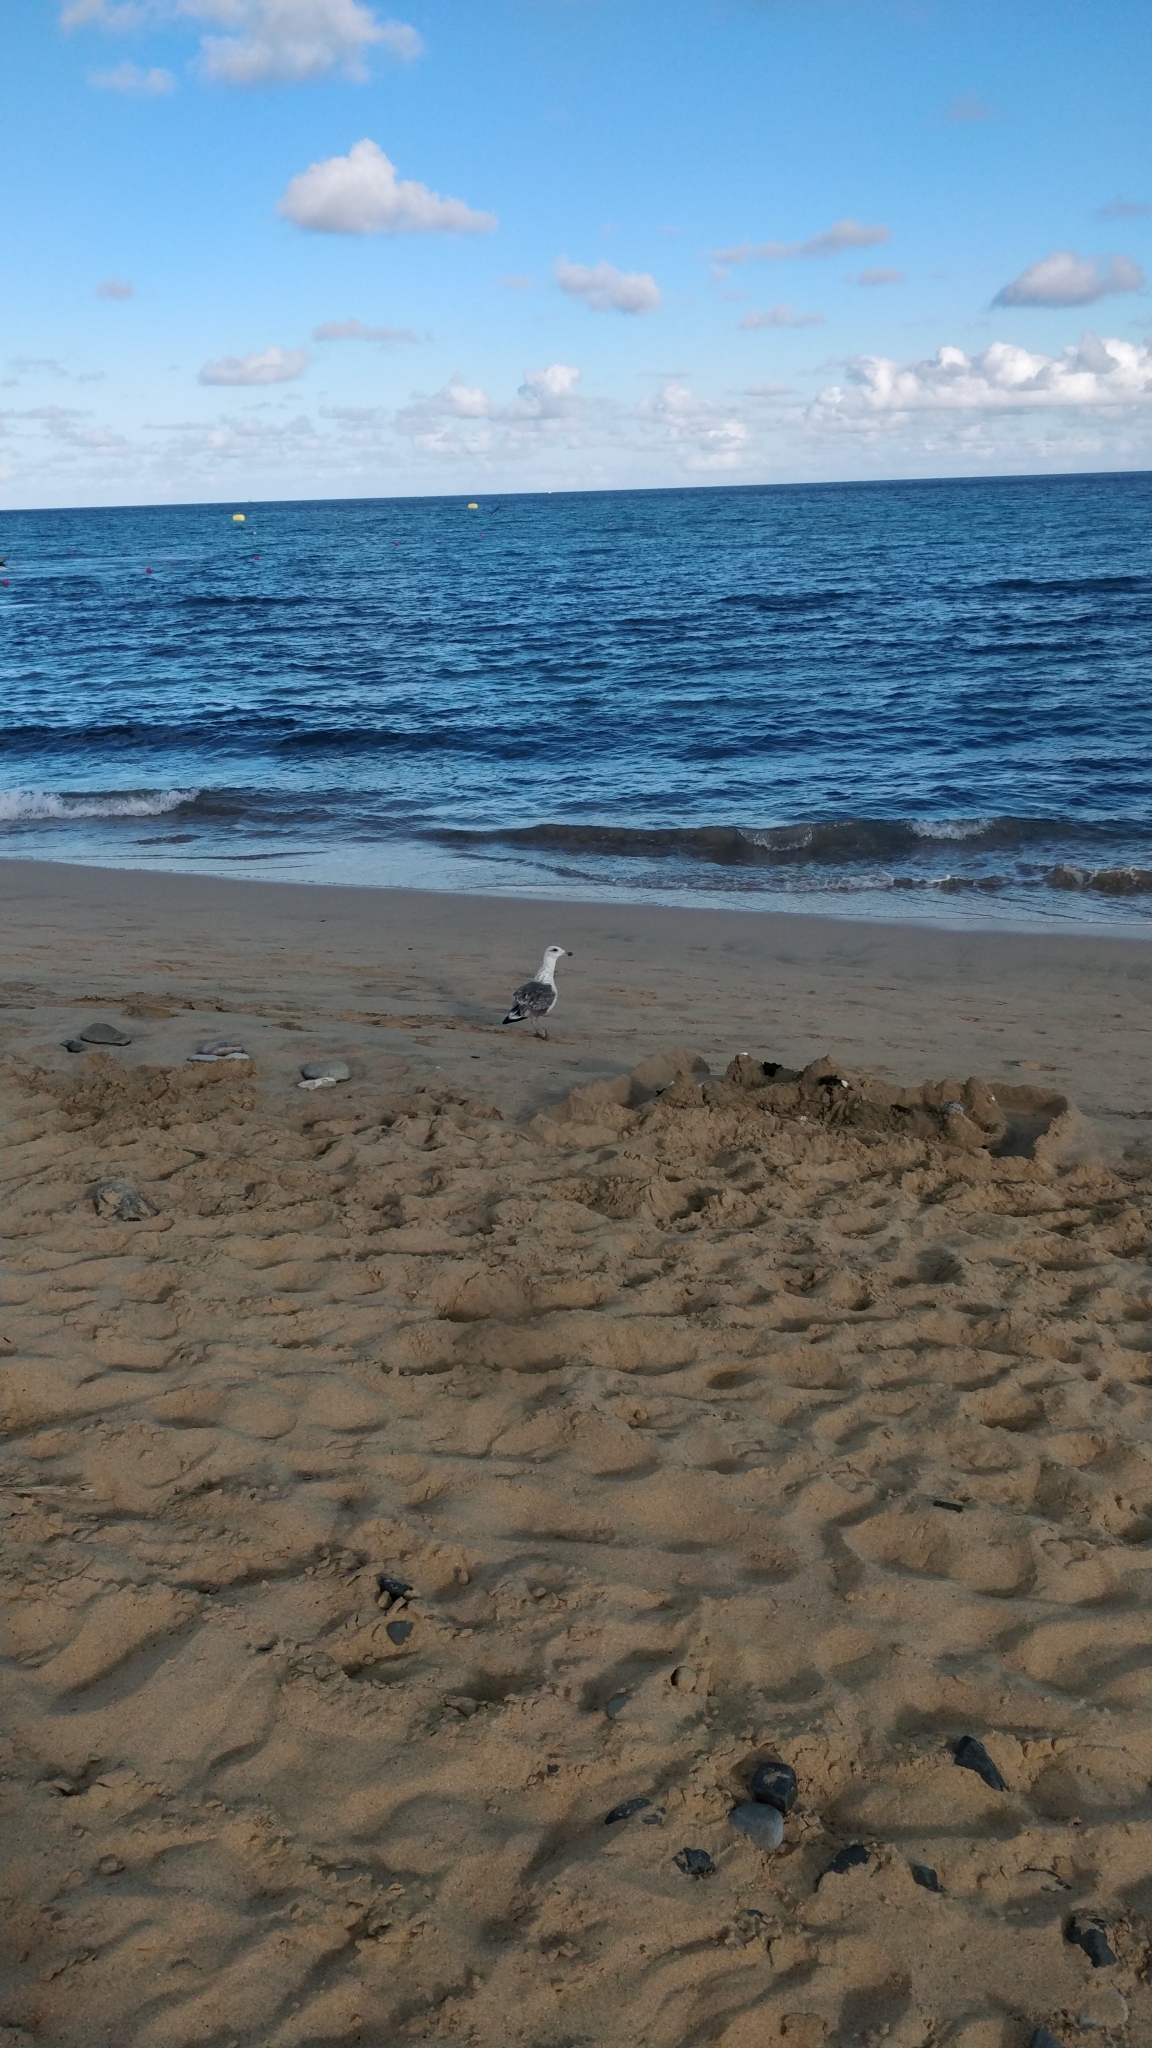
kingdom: Animalia
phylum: Chordata
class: Aves
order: Charadriiformes
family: Laridae
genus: Larus
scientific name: Larus fuscus
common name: Lesser black-backed gull
